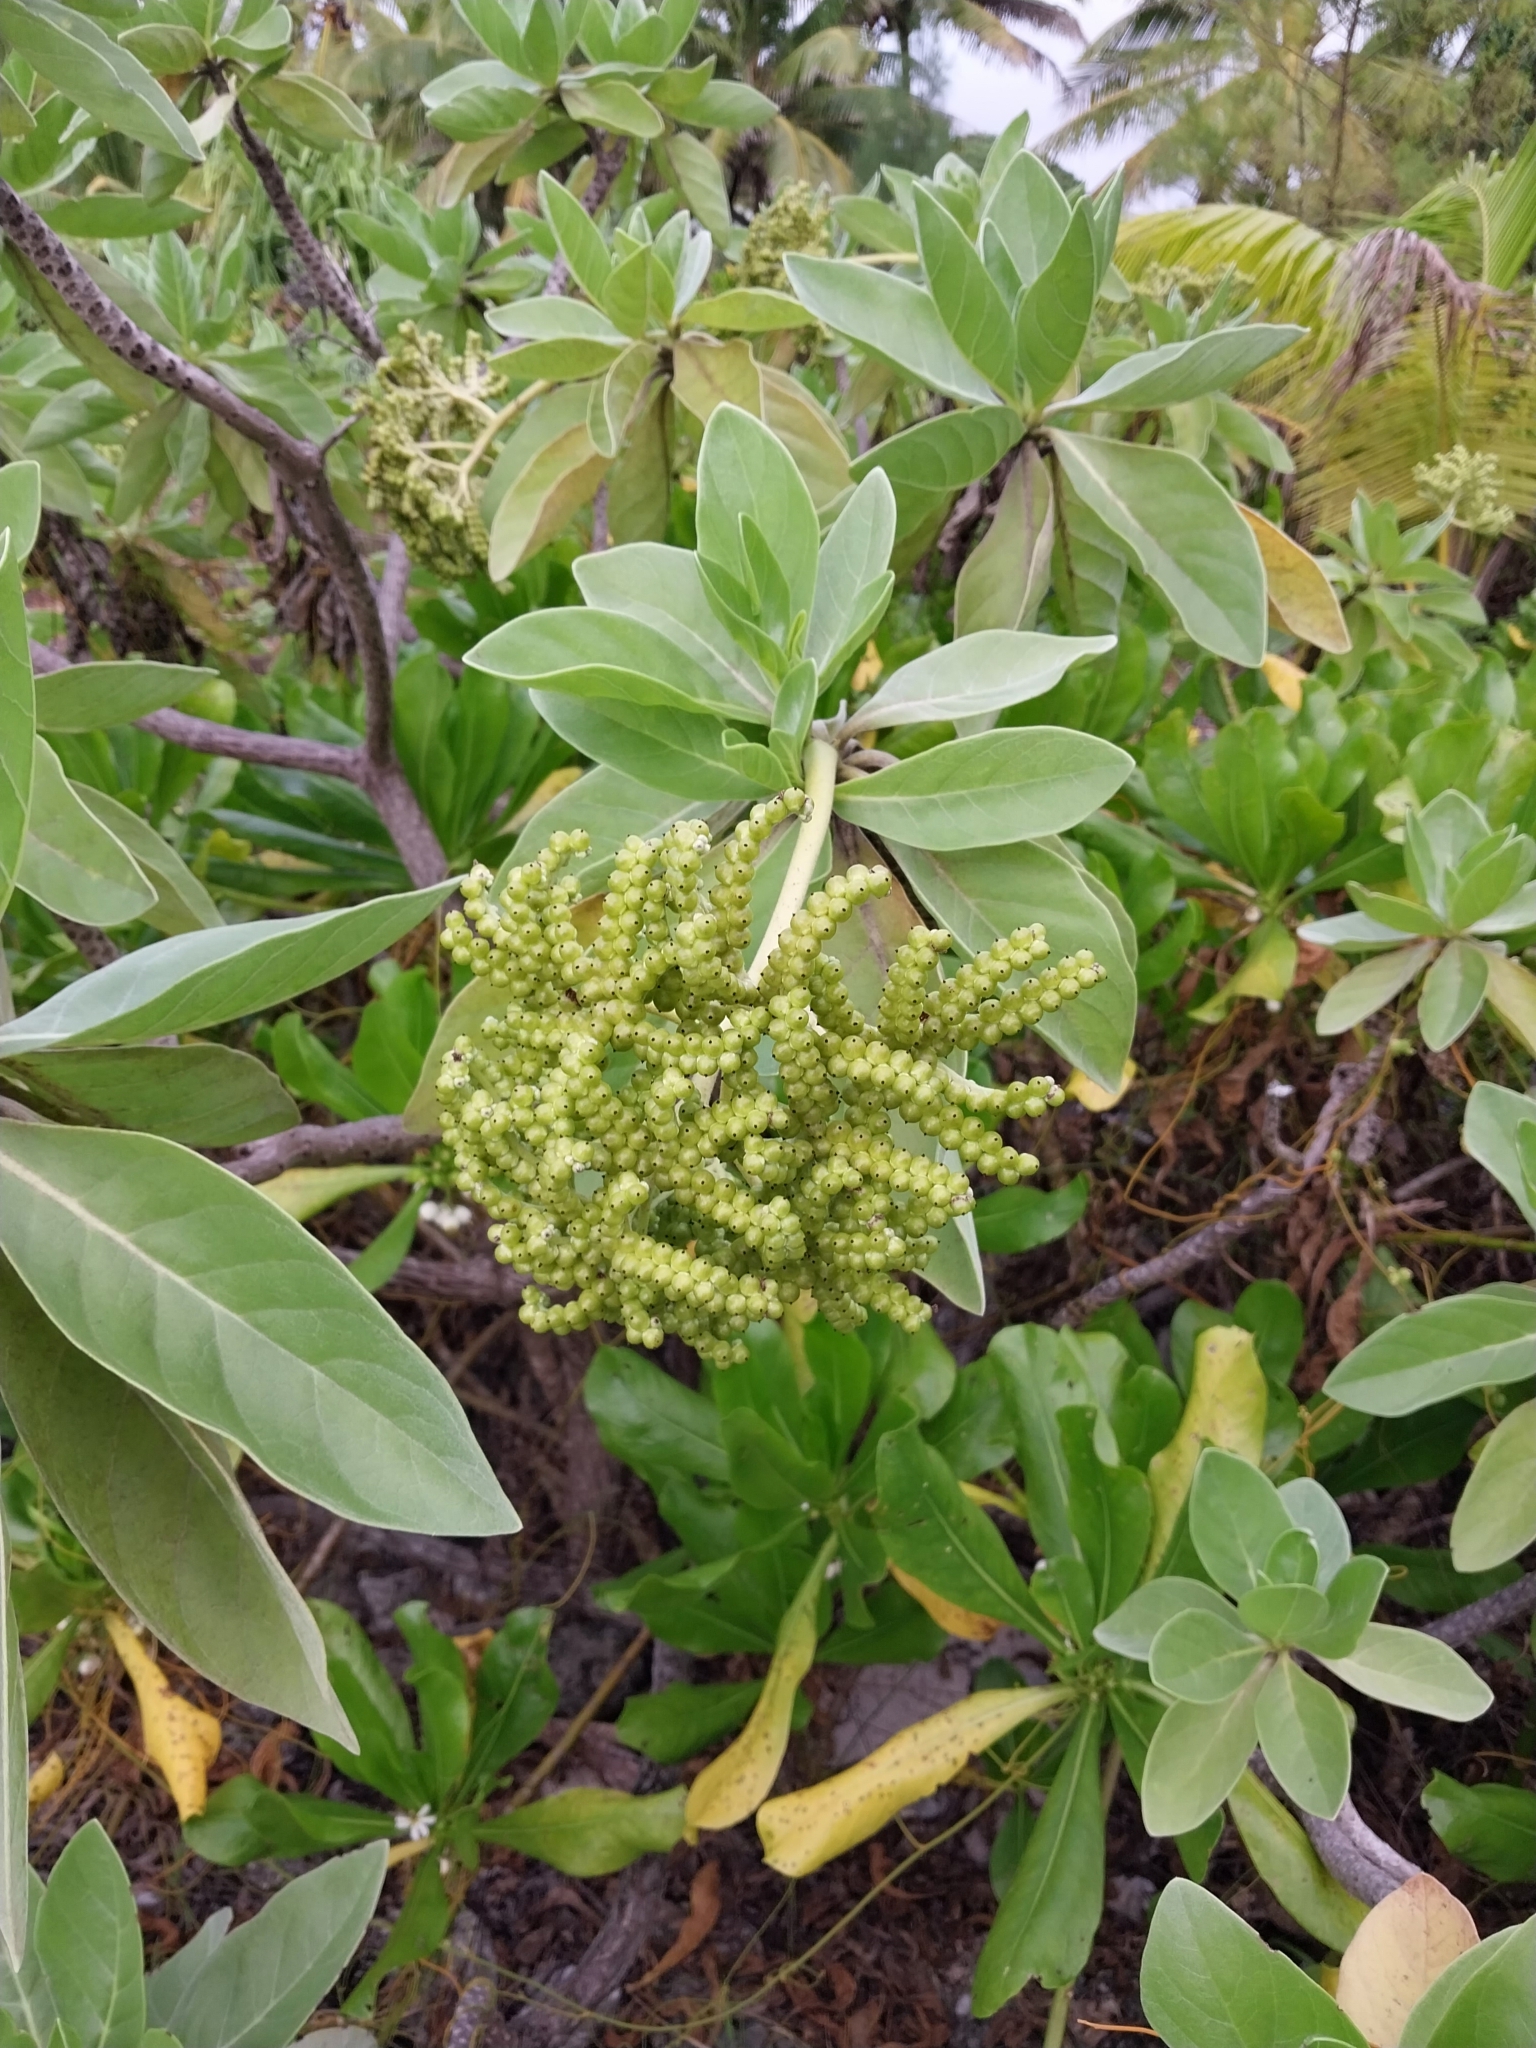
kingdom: Plantae
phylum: Tracheophyta
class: Magnoliopsida
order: Boraginales
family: Heliotropiaceae
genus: Heliotropium
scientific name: Heliotropium velutinum
